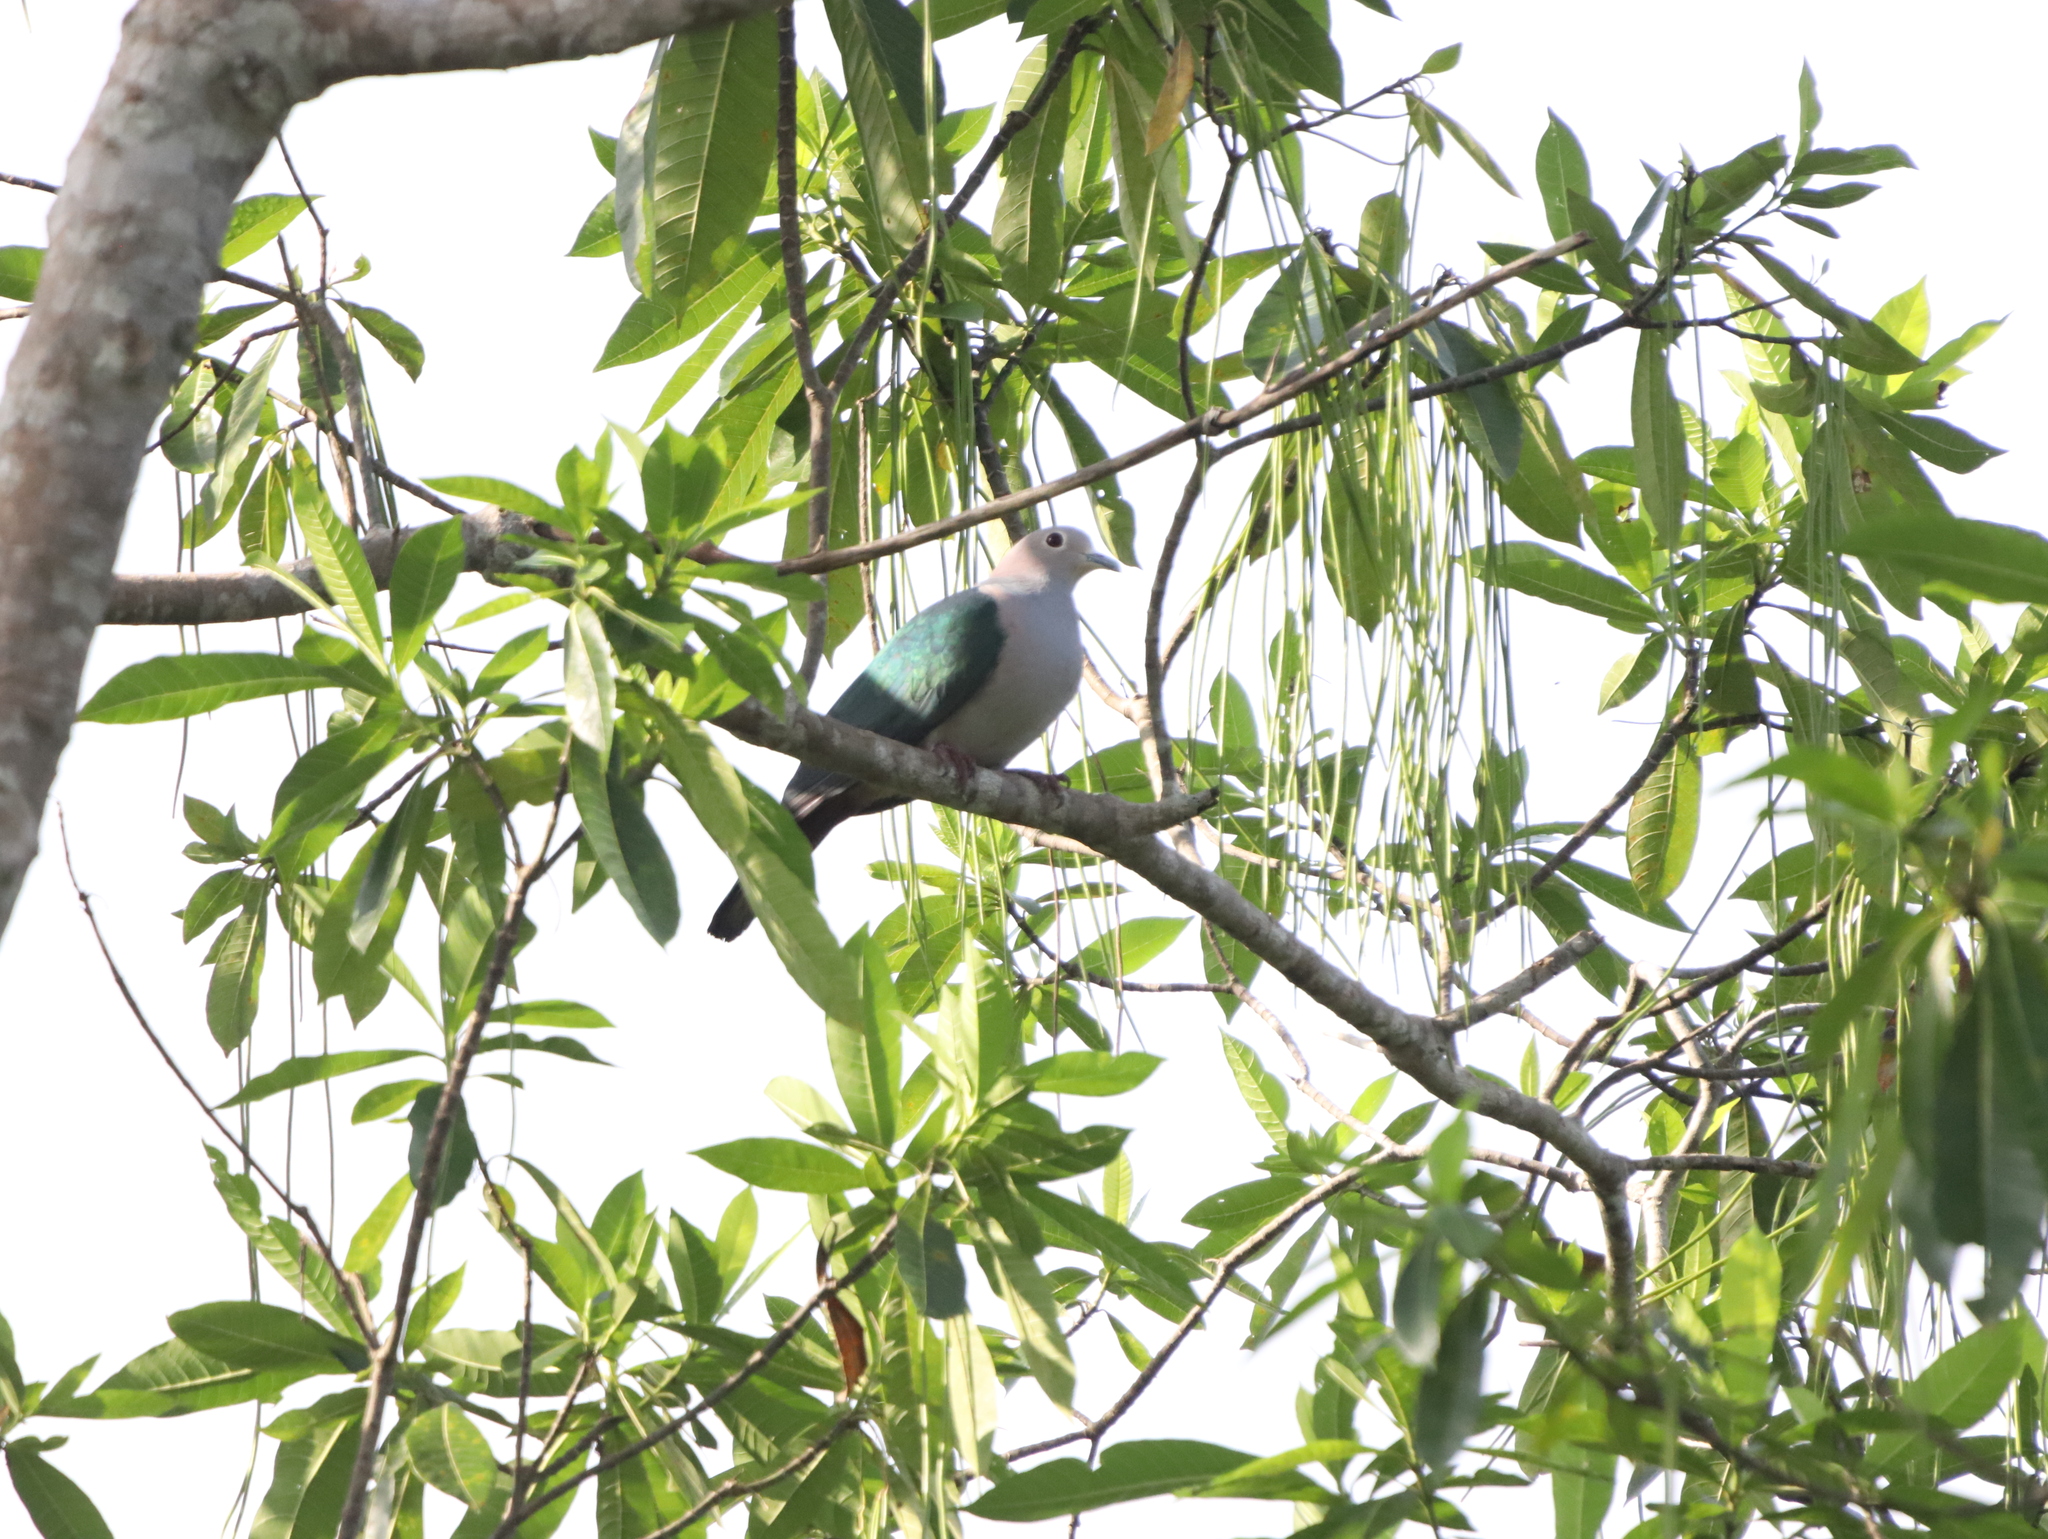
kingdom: Animalia
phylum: Chordata
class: Aves
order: Columbiformes
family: Columbidae
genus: Ducula
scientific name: Ducula aenea
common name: Green imperial pigeon
